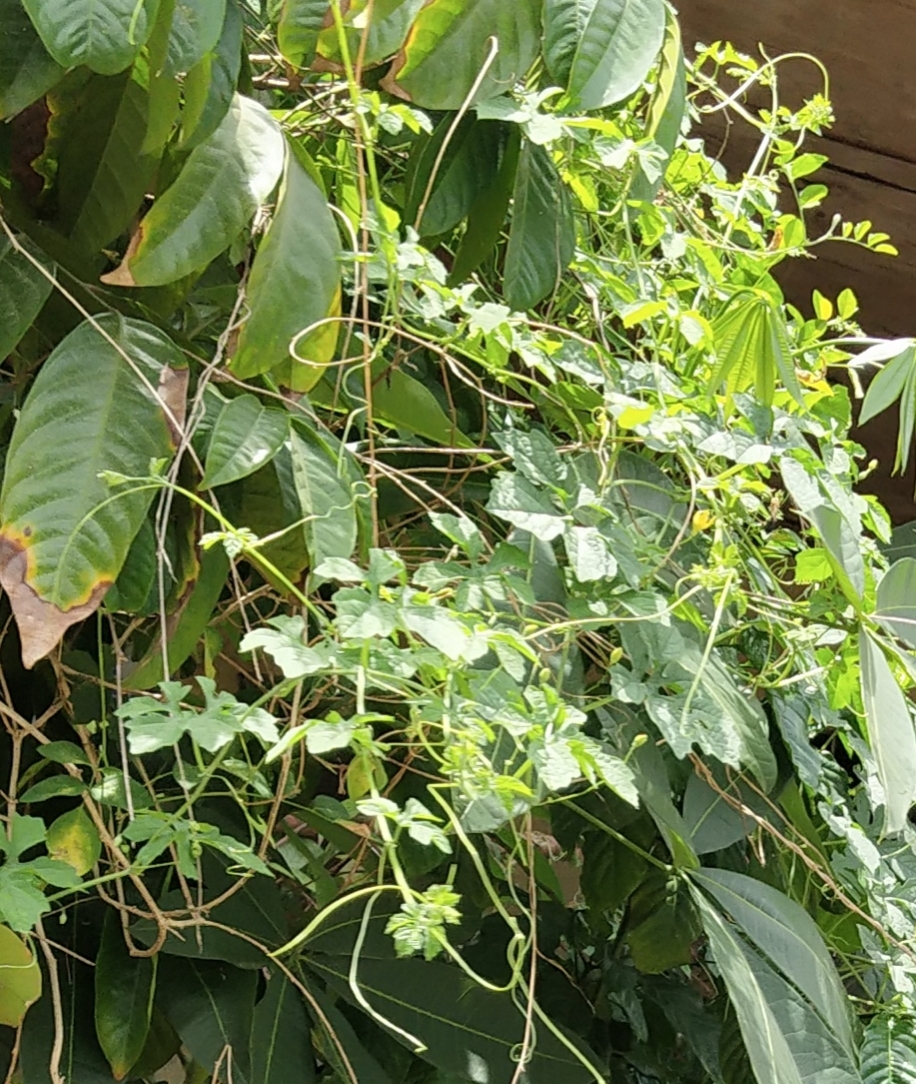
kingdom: Plantae
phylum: Tracheophyta
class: Magnoliopsida
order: Cucurbitales
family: Cucurbitaceae
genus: Momordica
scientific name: Momordica charantia
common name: Balsampear
